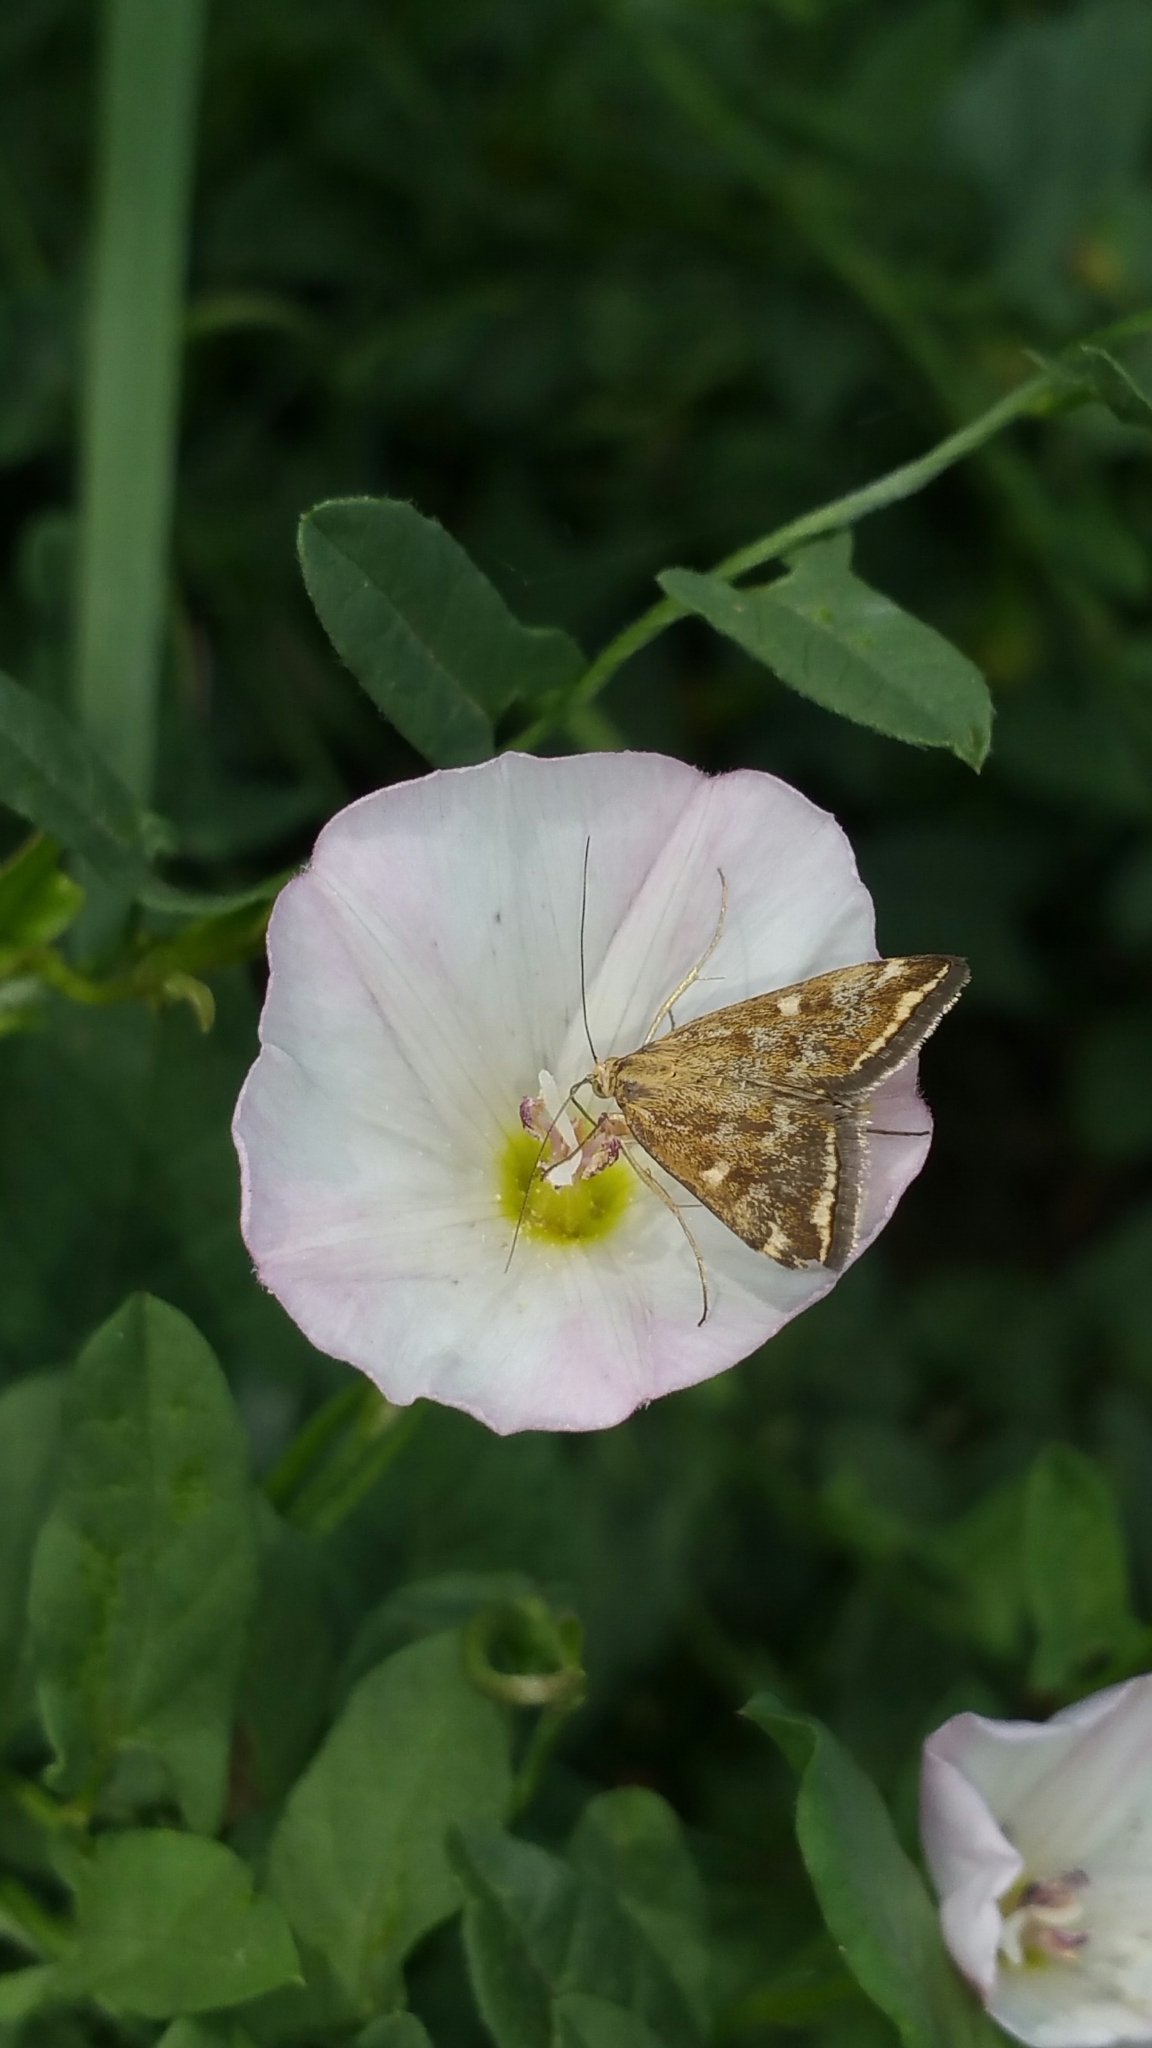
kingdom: Animalia
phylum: Arthropoda
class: Insecta
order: Lepidoptera
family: Crambidae
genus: Loxostege
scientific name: Loxostege sticticalis
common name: Crambid moth
